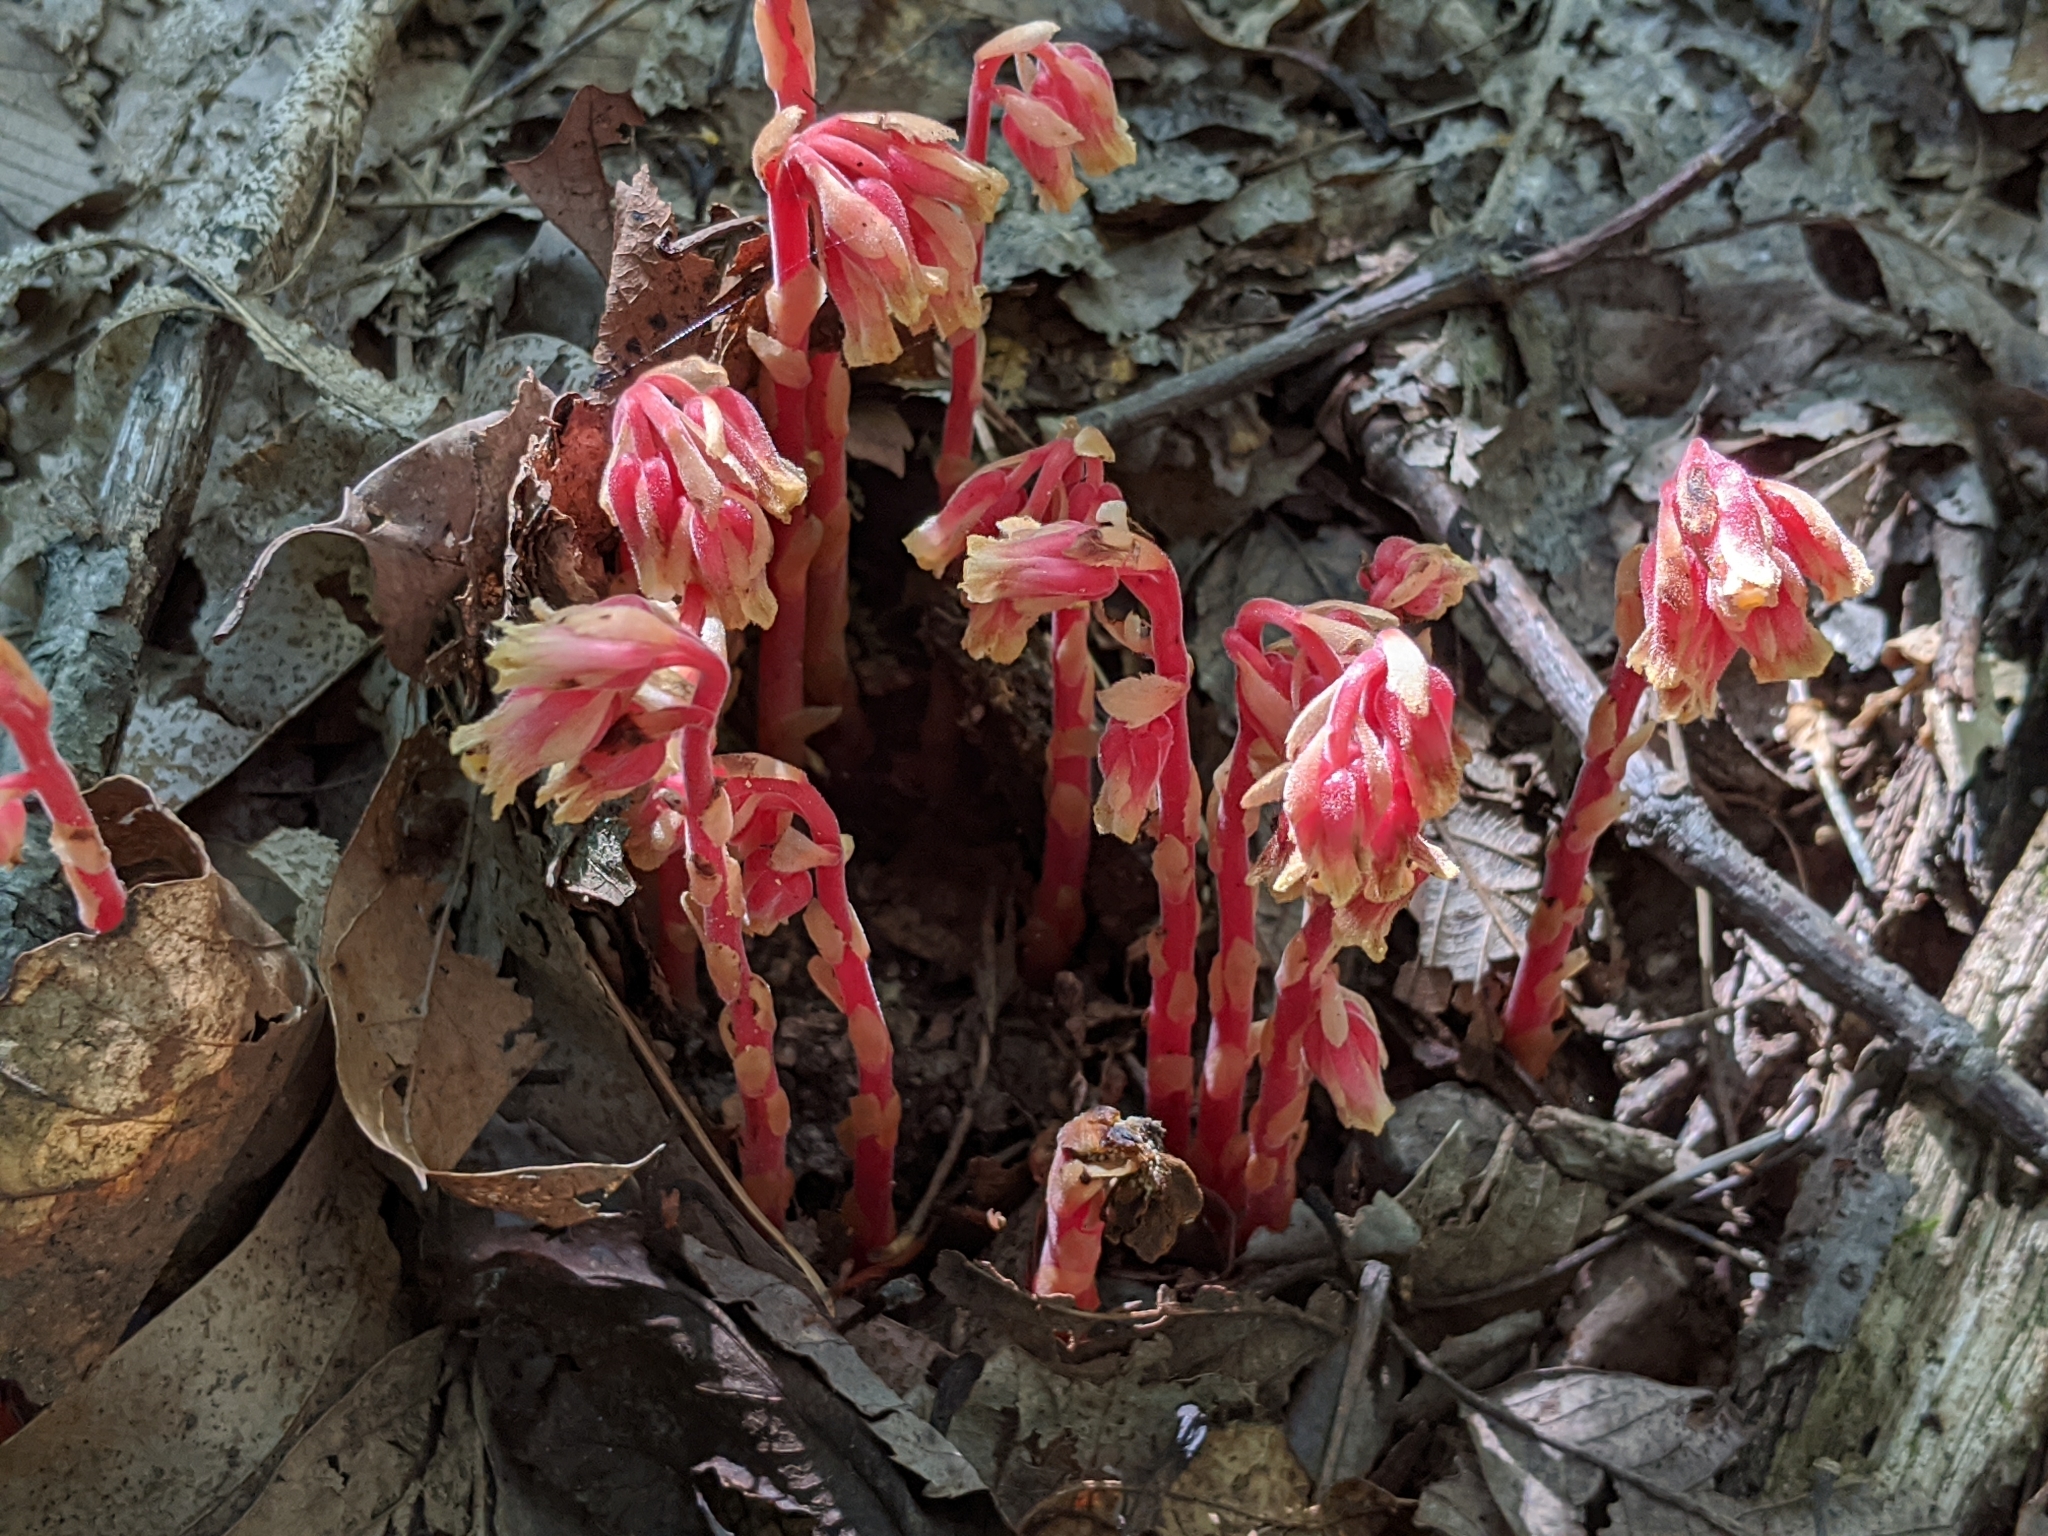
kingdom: Plantae
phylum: Tracheophyta
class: Magnoliopsida
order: Ericales
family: Ericaceae
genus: Hypopitys
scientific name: Hypopitys monotropa
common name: Yellow bird's-nest
